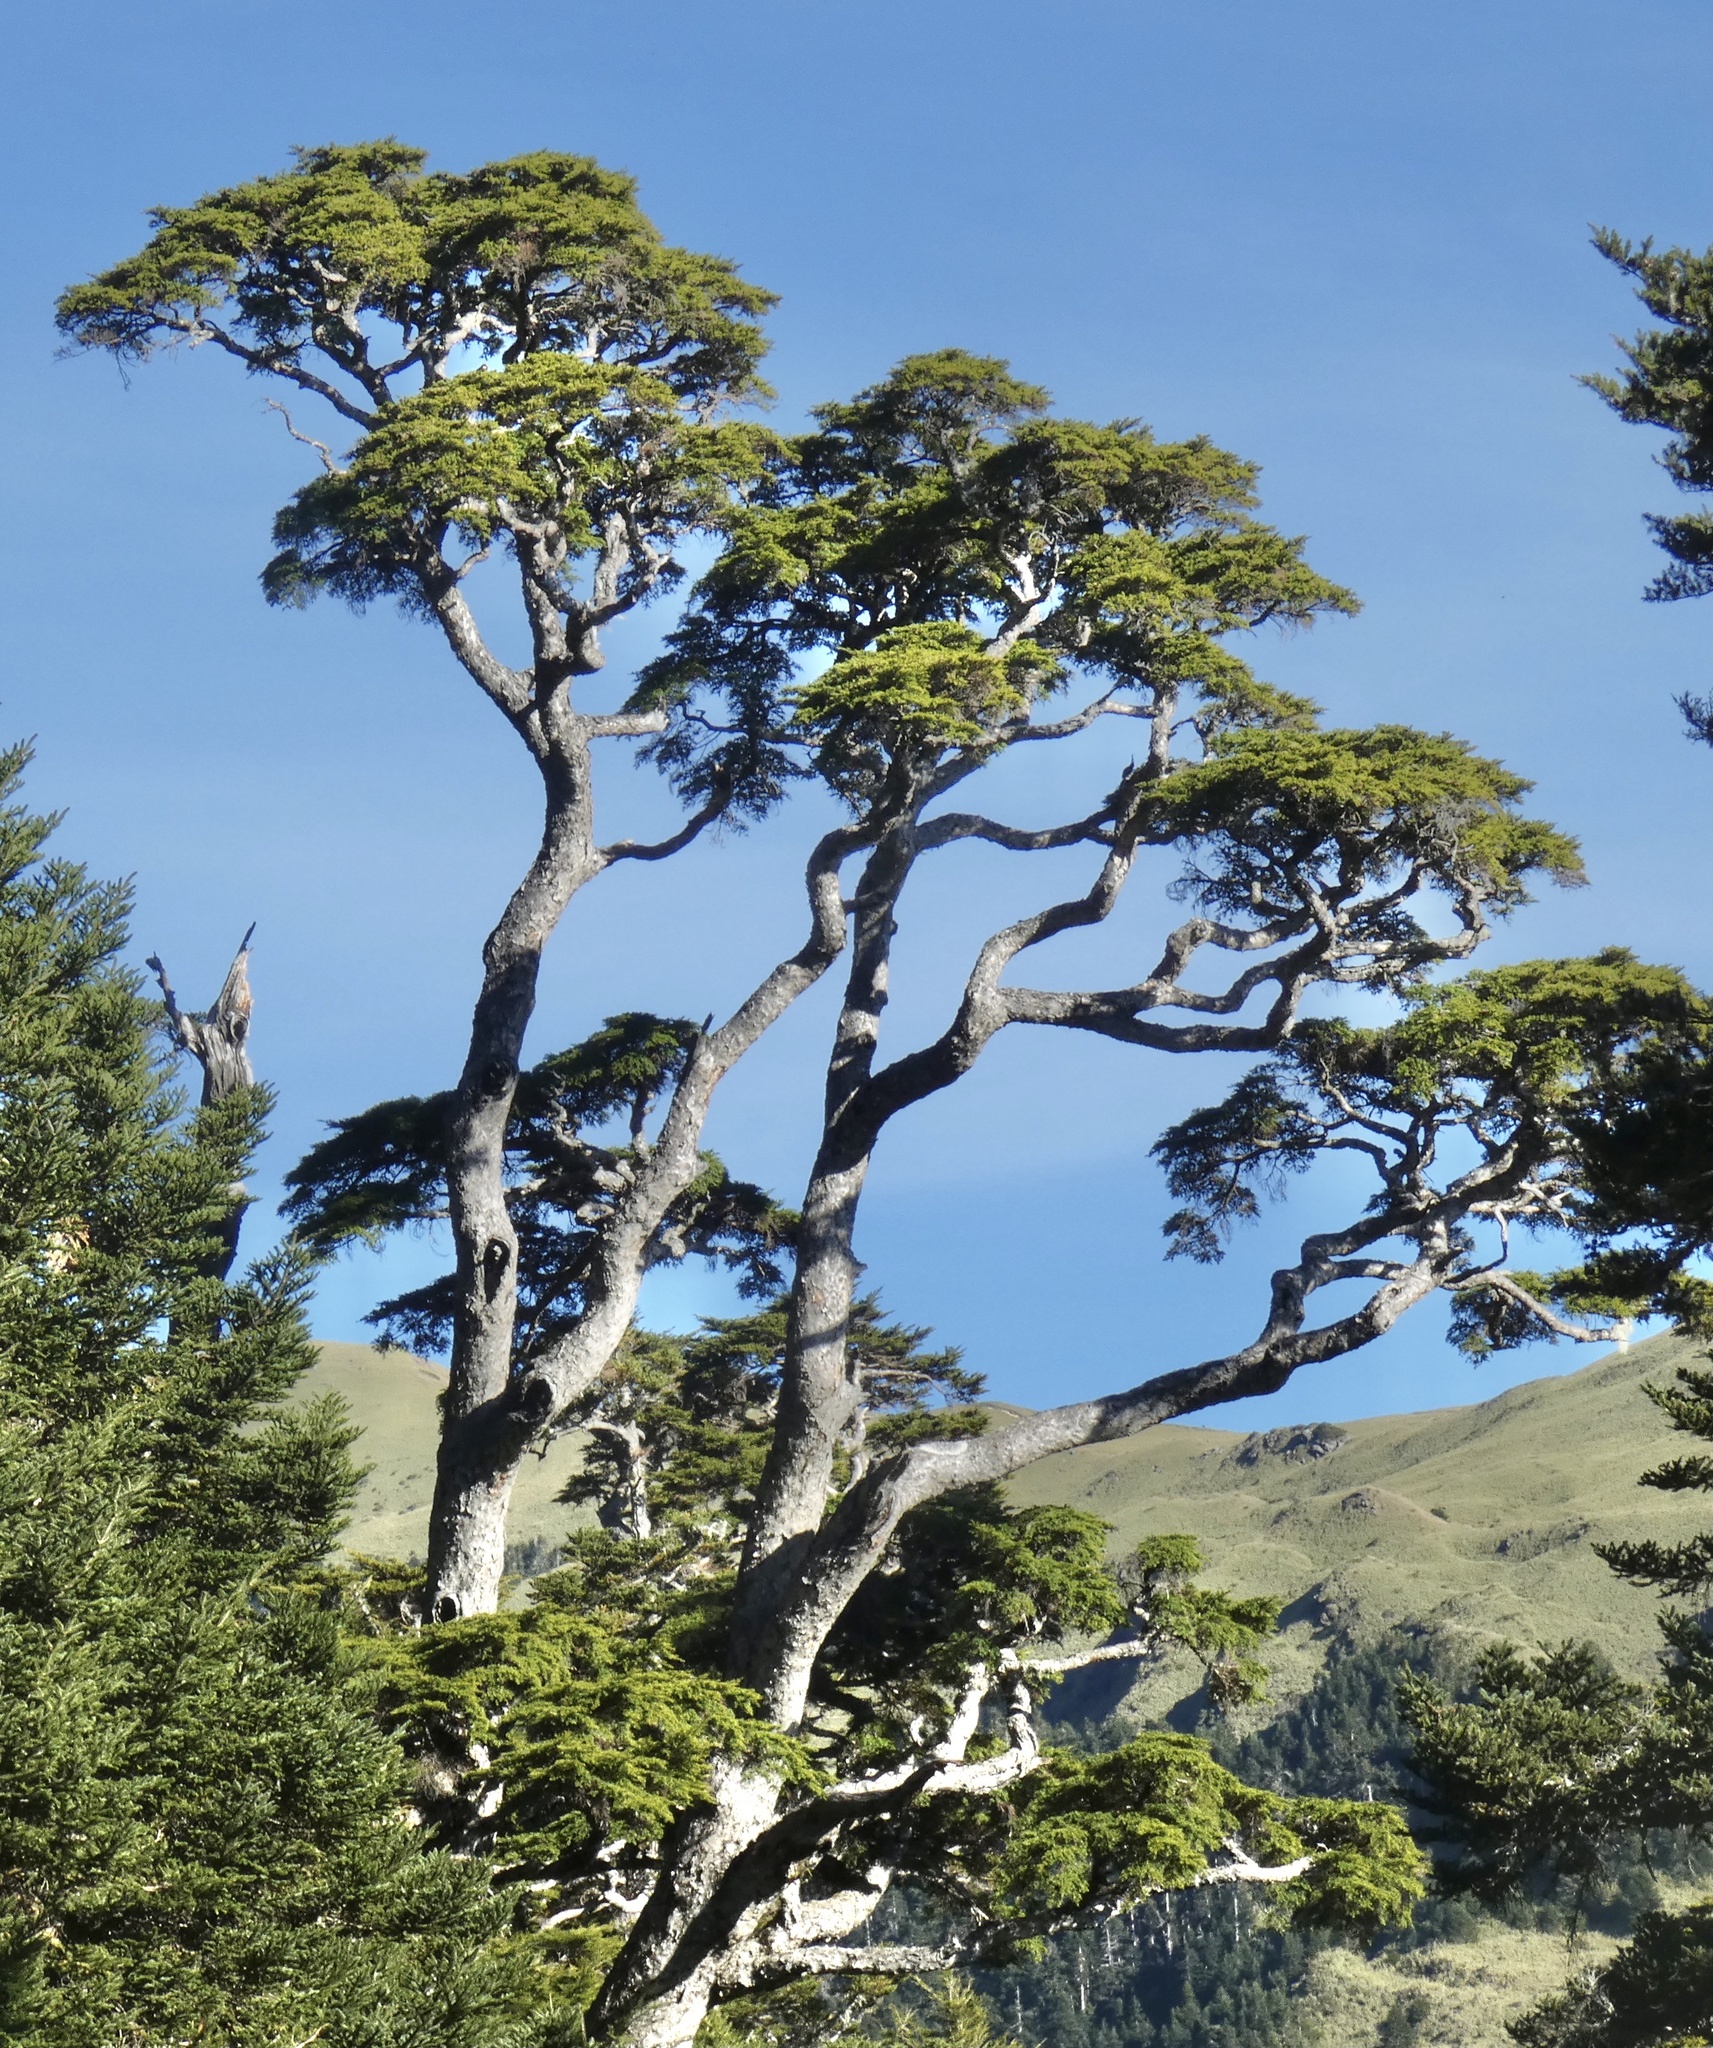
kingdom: Plantae
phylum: Tracheophyta
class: Pinopsida
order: Pinales
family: Pinaceae
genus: Tsuga
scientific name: Tsuga chinensis
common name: Chinese hemlock
